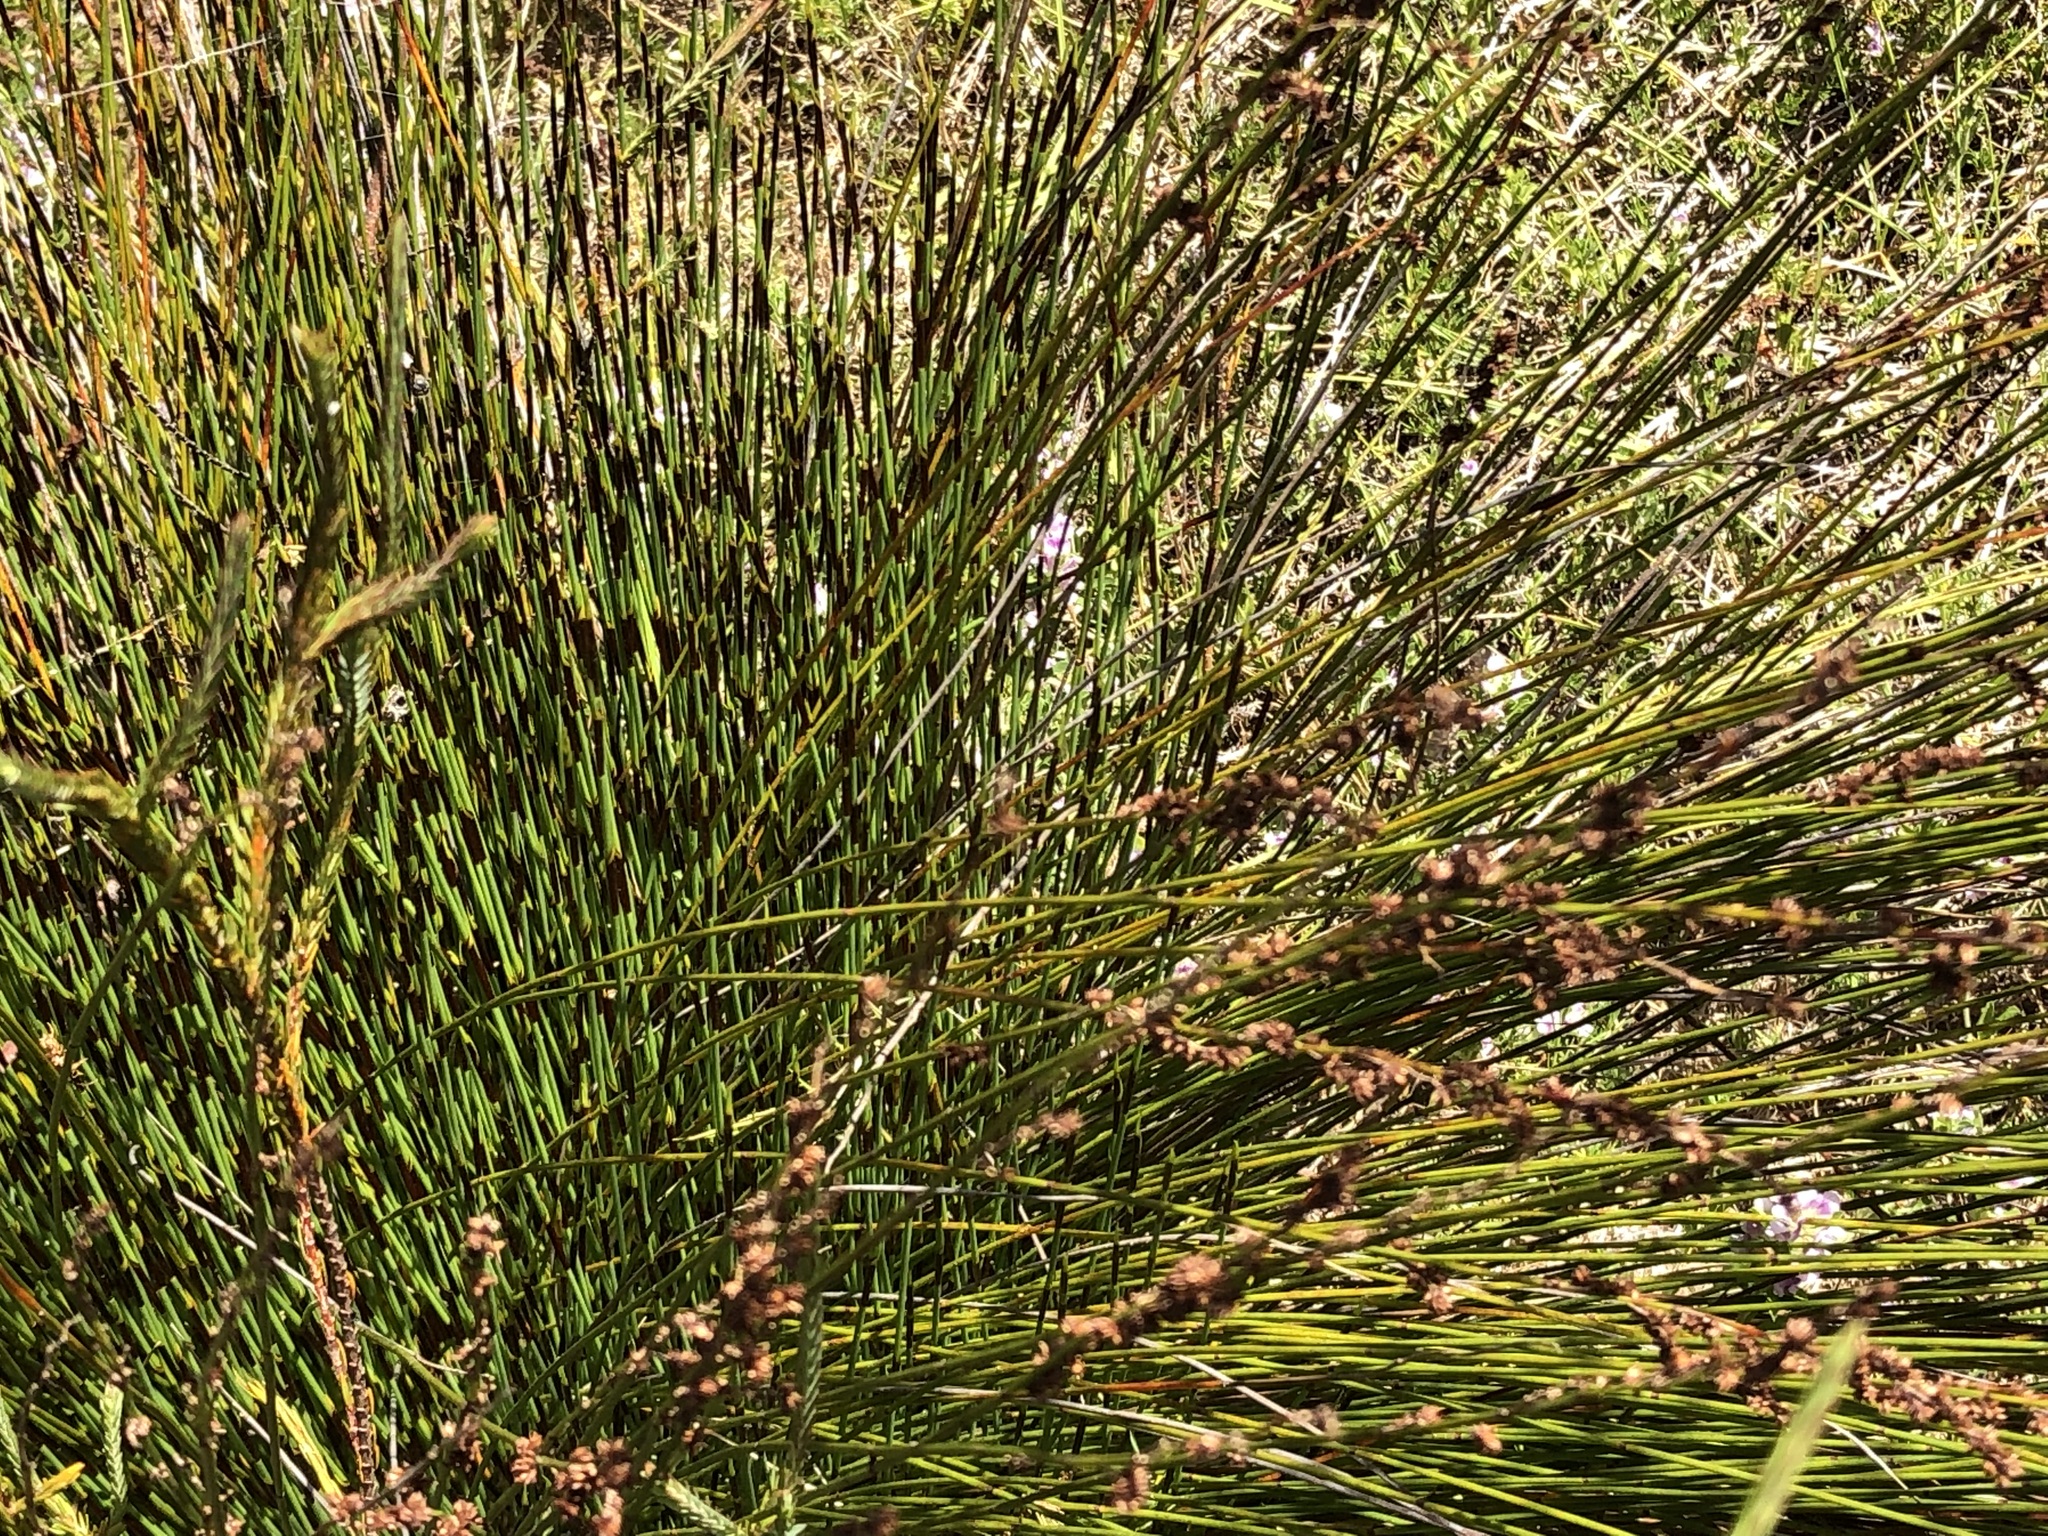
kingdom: Plantae
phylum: Tracheophyta
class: Liliopsida
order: Poales
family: Restionaceae
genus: Elegia
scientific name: Elegia nuda
